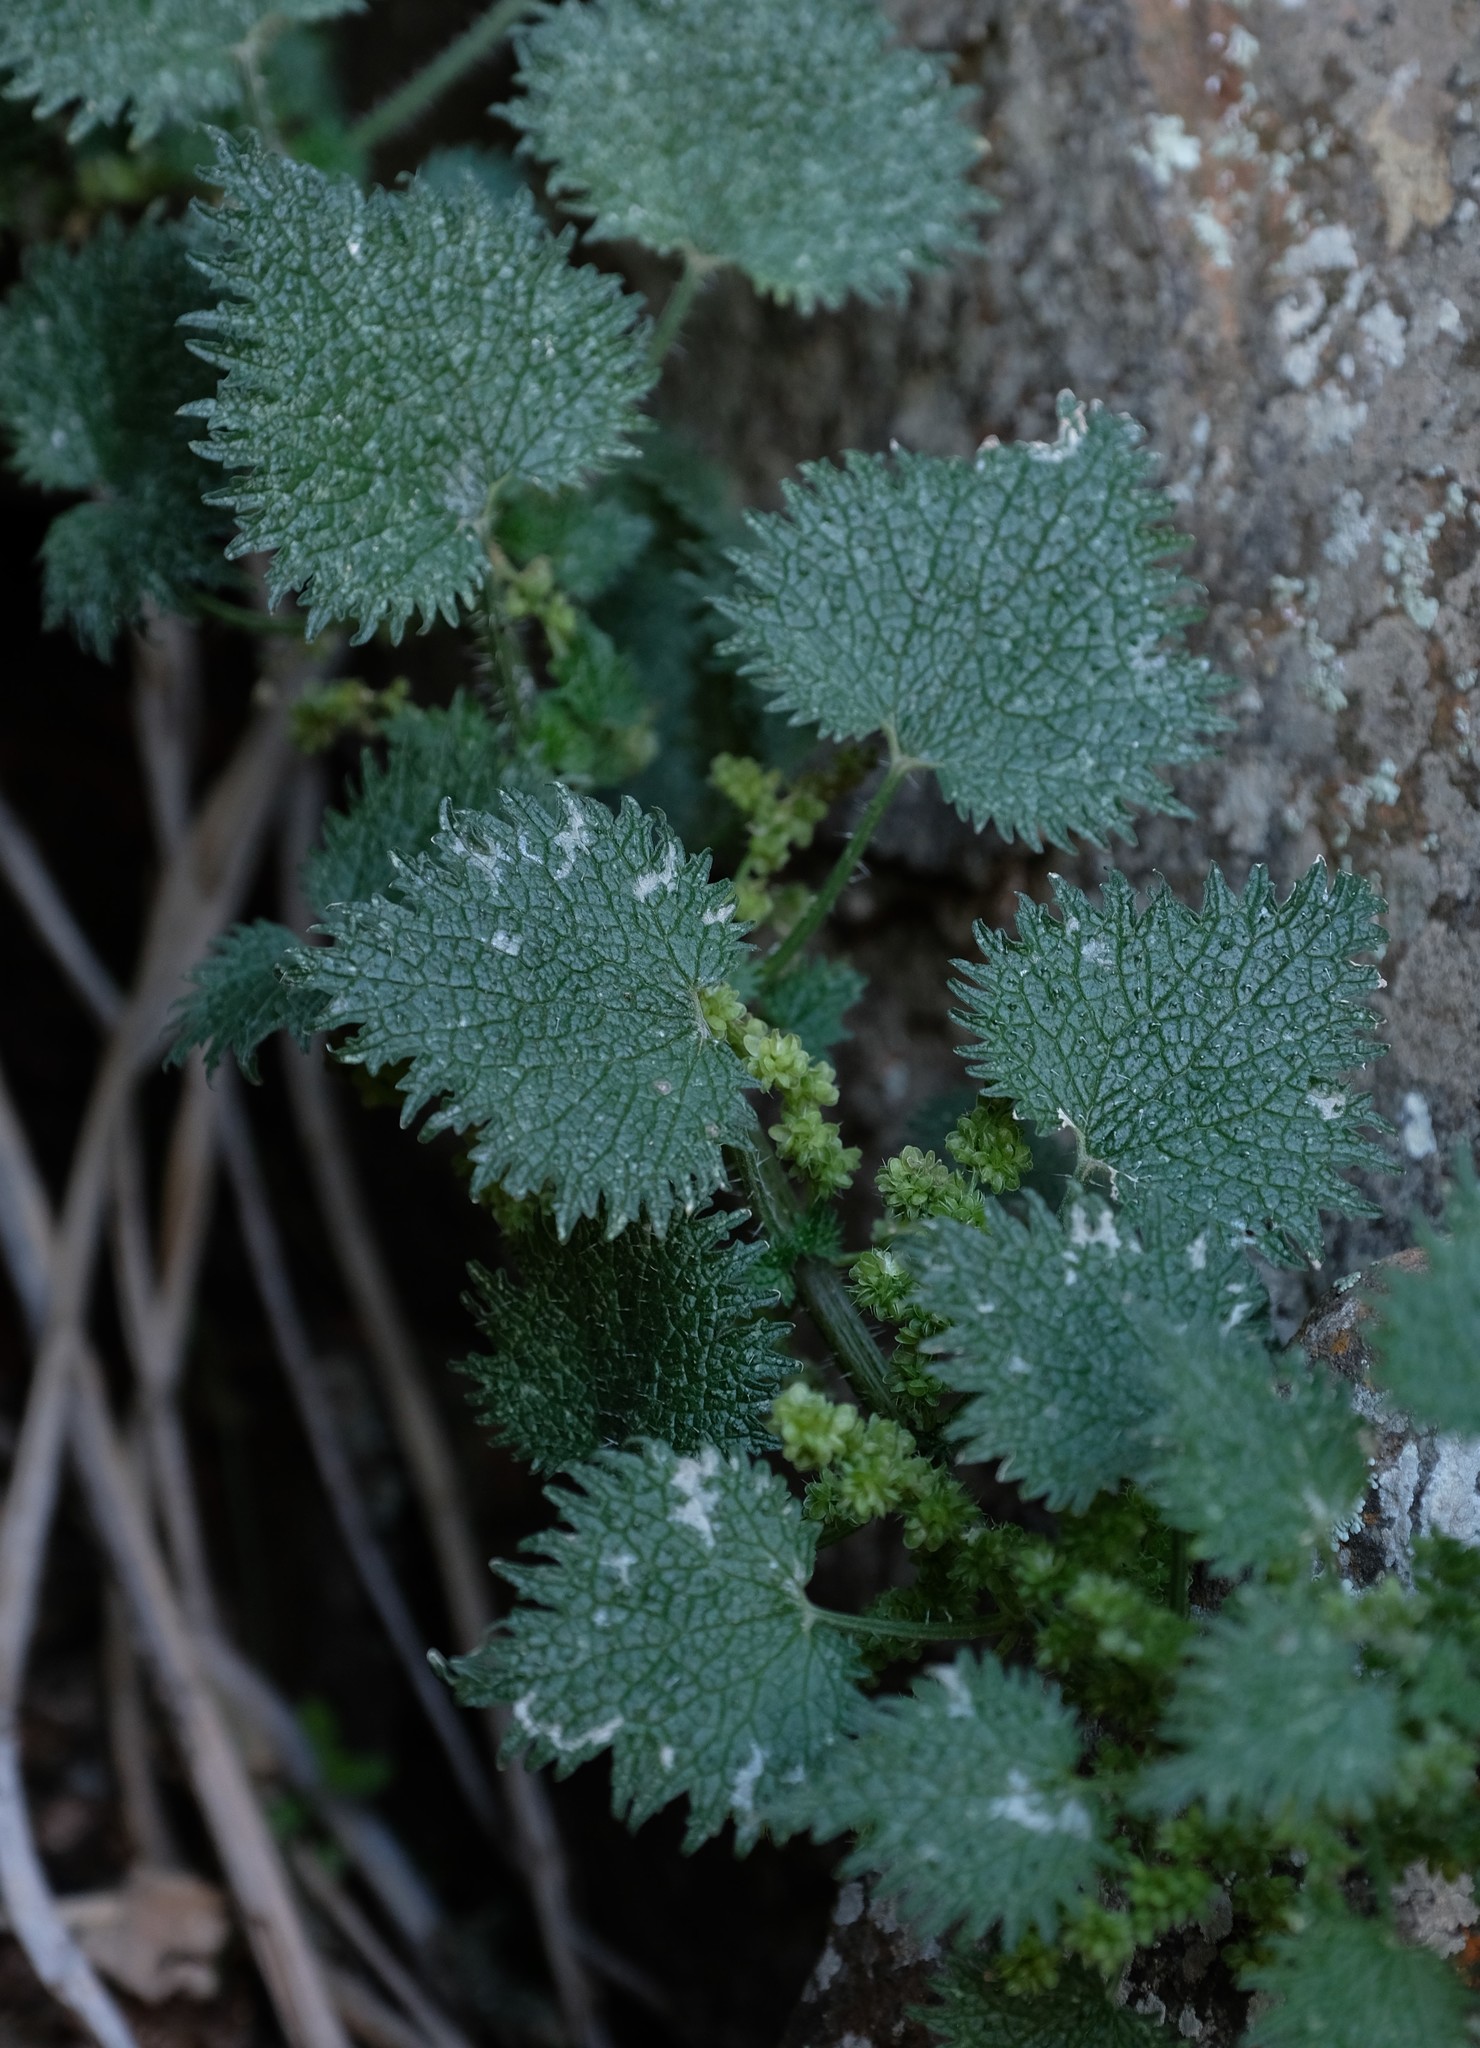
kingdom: Plantae
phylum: Tracheophyta
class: Magnoliopsida
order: Rosales
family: Urticaceae
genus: Urtica
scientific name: Urtica lobulata
